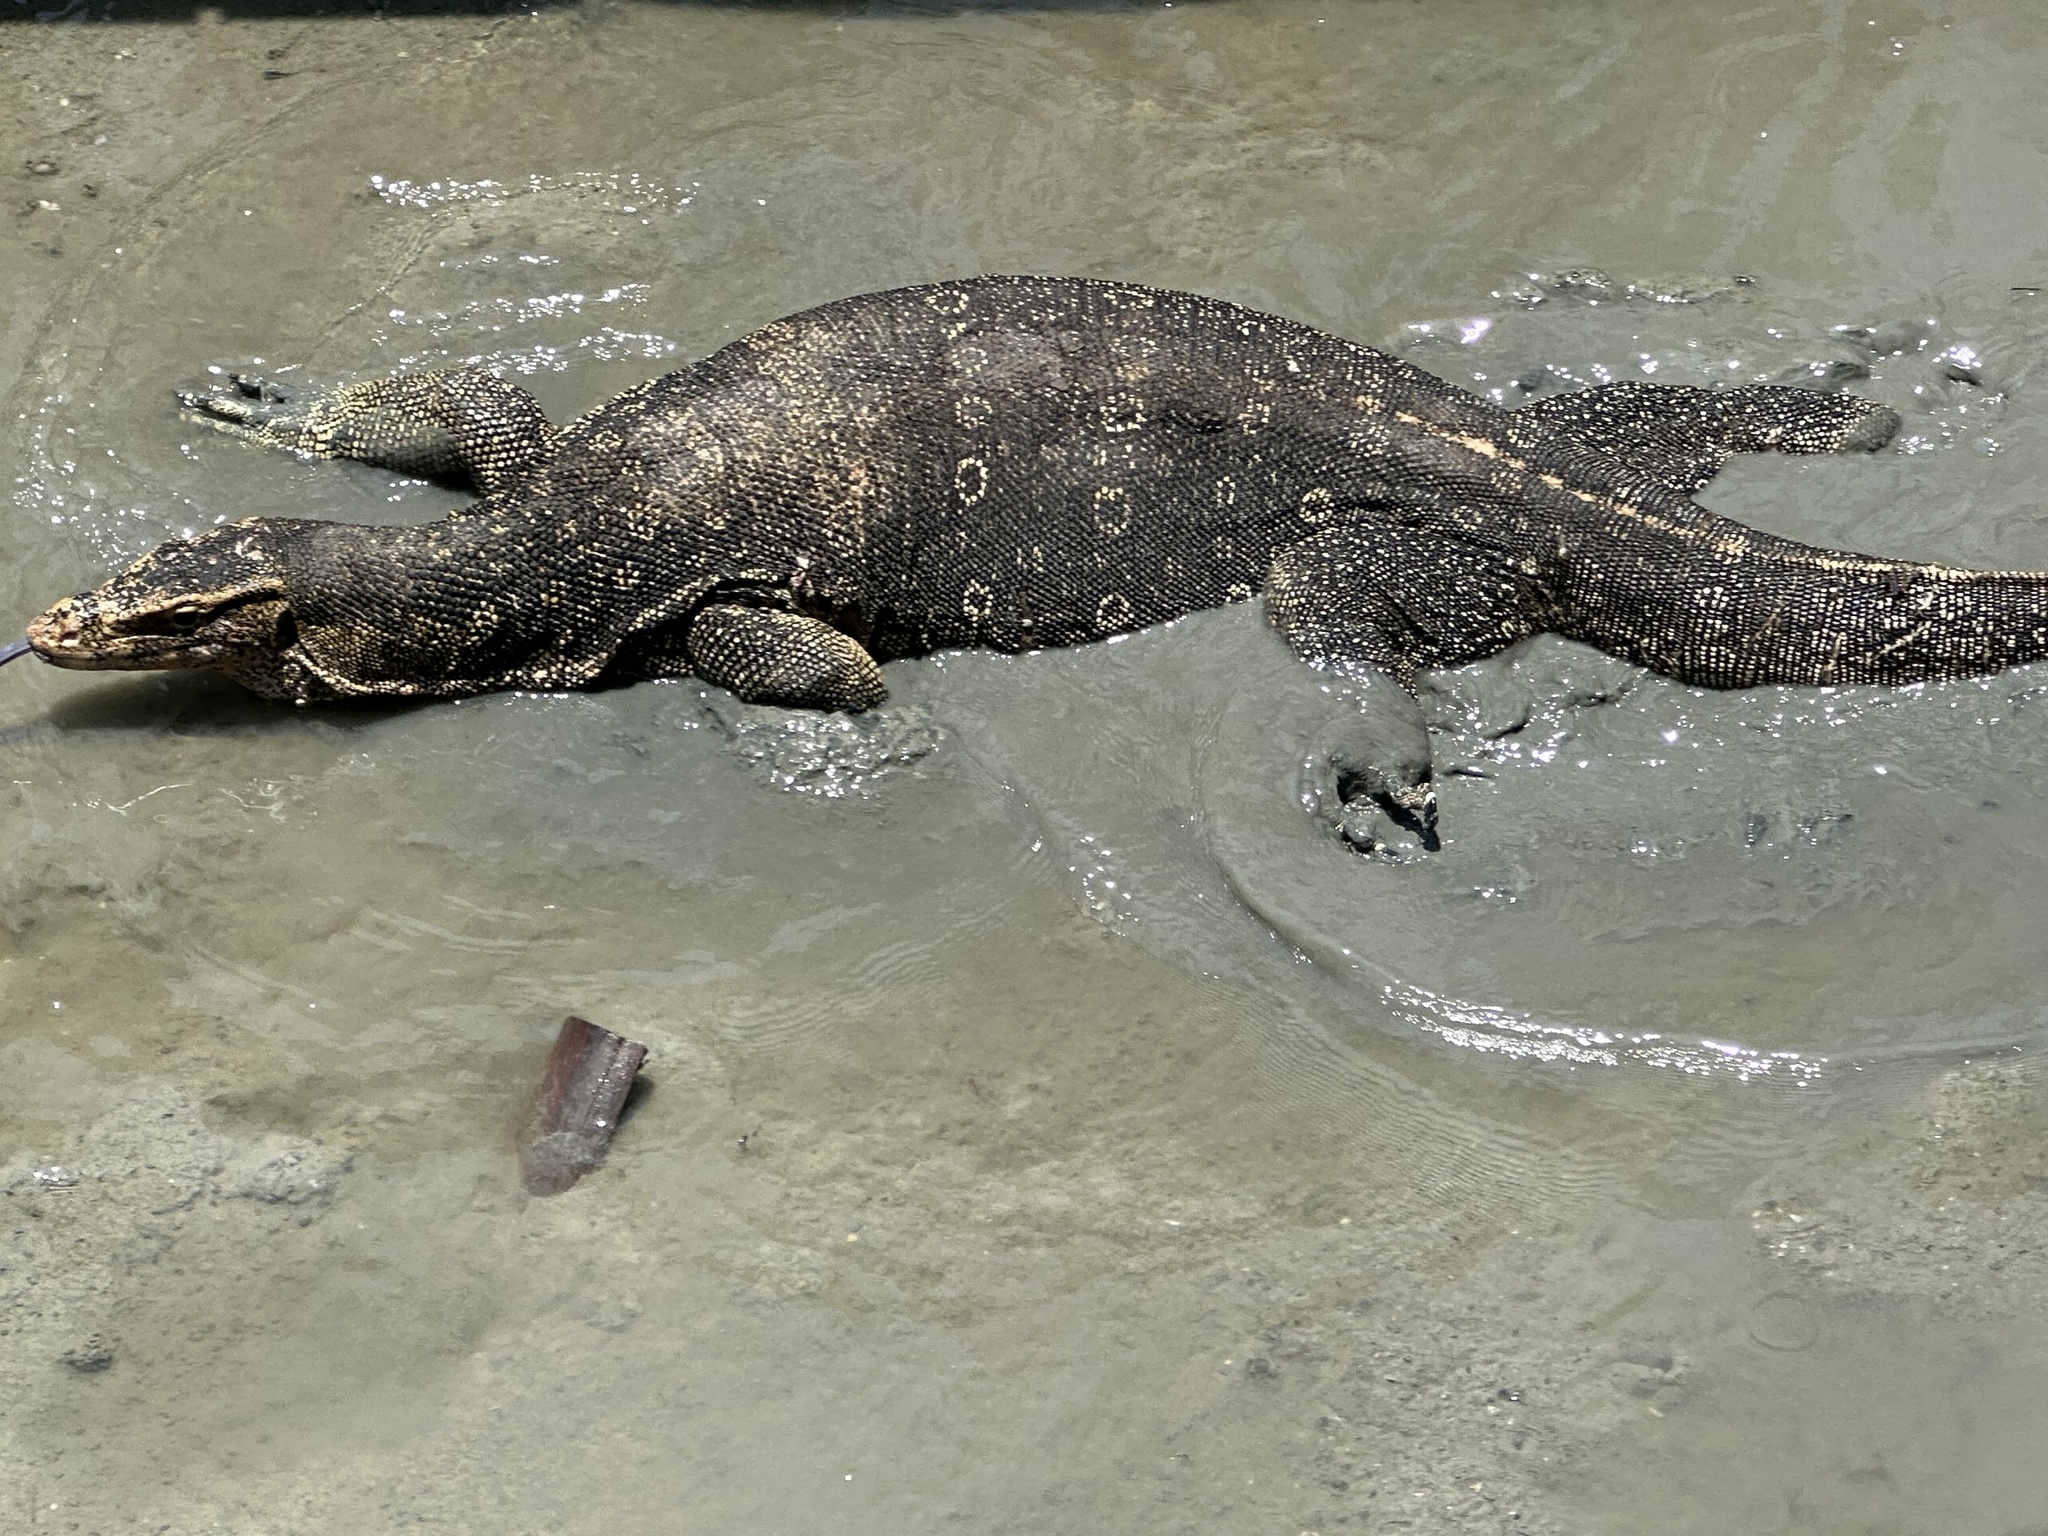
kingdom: Animalia
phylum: Chordata
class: Squamata
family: Varanidae
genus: Varanus
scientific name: Varanus salvator
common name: Common water monitor
